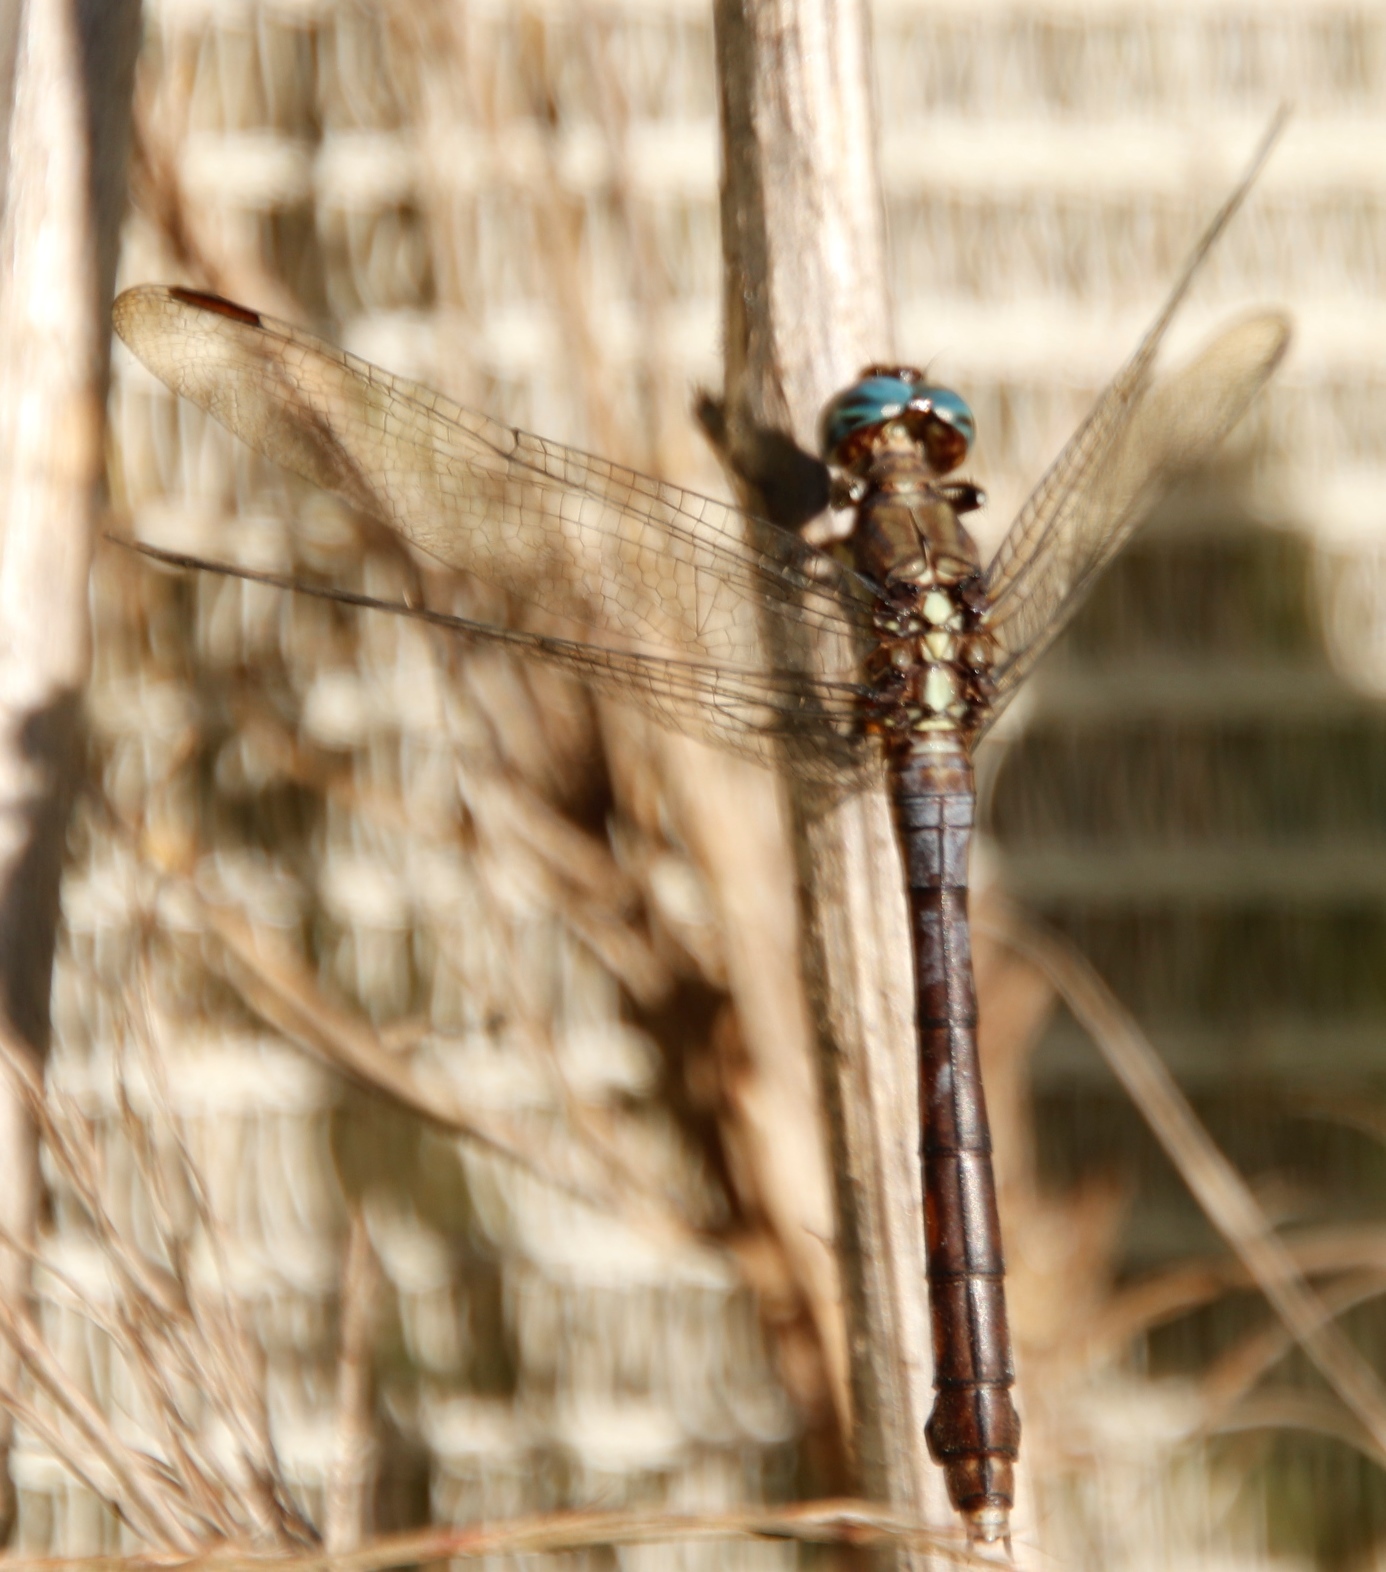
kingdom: Animalia
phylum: Arthropoda
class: Insecta
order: Odonata
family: Libellulidae
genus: Orthetrum
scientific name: Orthetrum julia
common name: Julia skimmer
